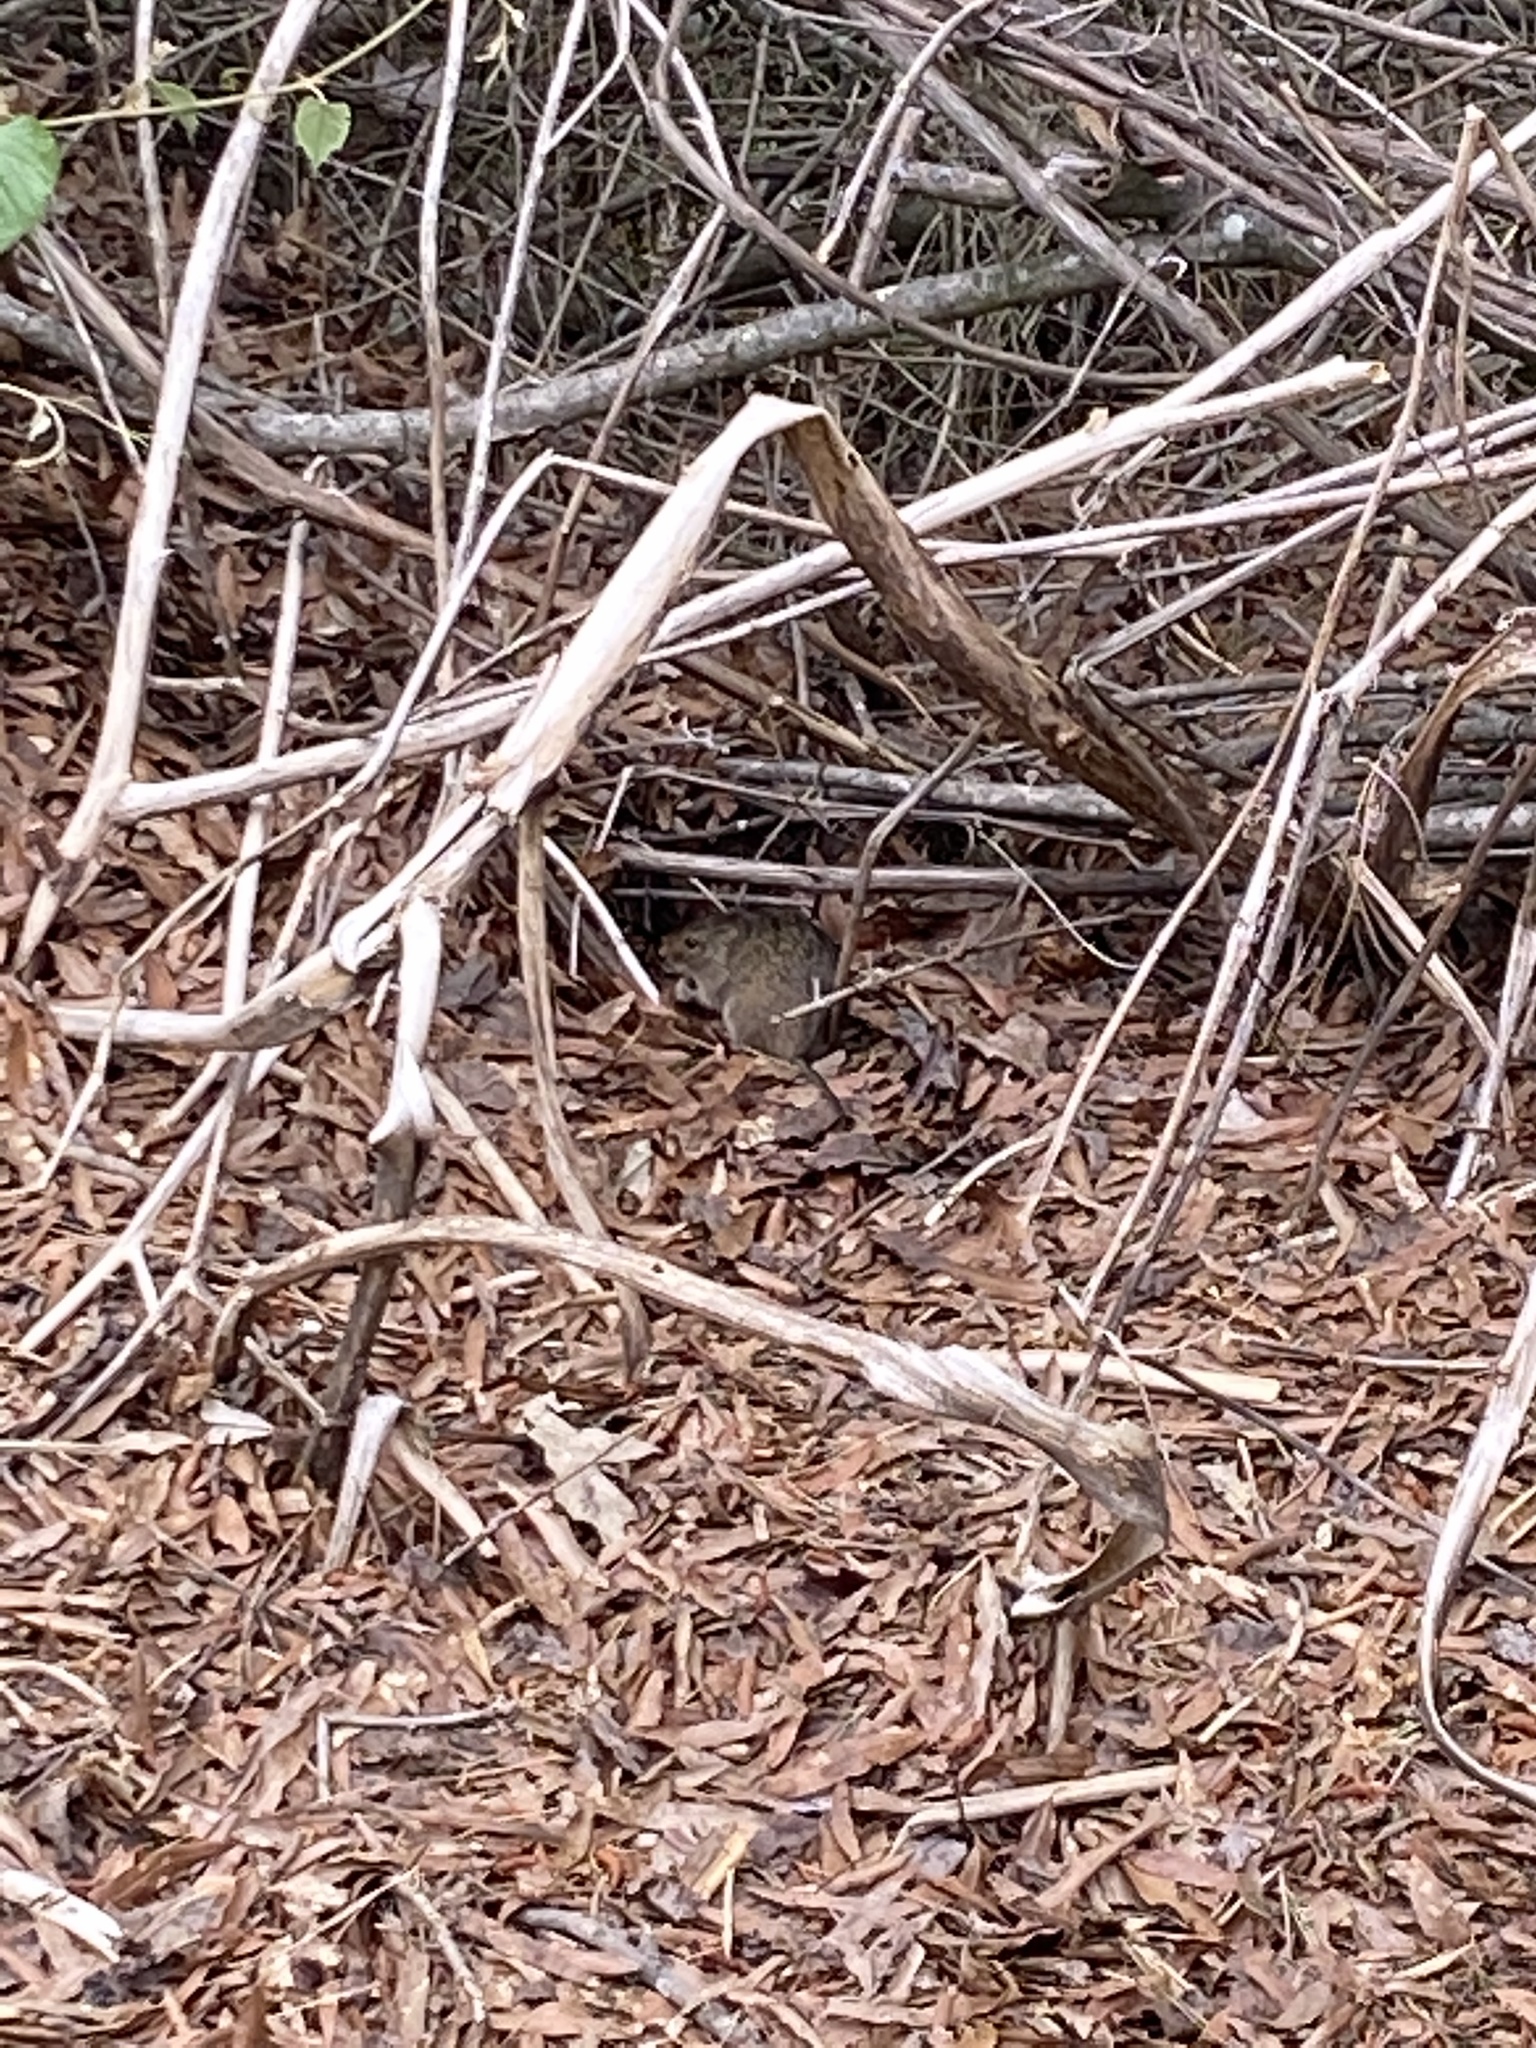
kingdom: Animalia
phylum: Chordata
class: Mammalia
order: Rodentia
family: Cricetidae
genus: Sigmodon
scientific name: Sigmodon hispidus
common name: Hispid cotton rat
